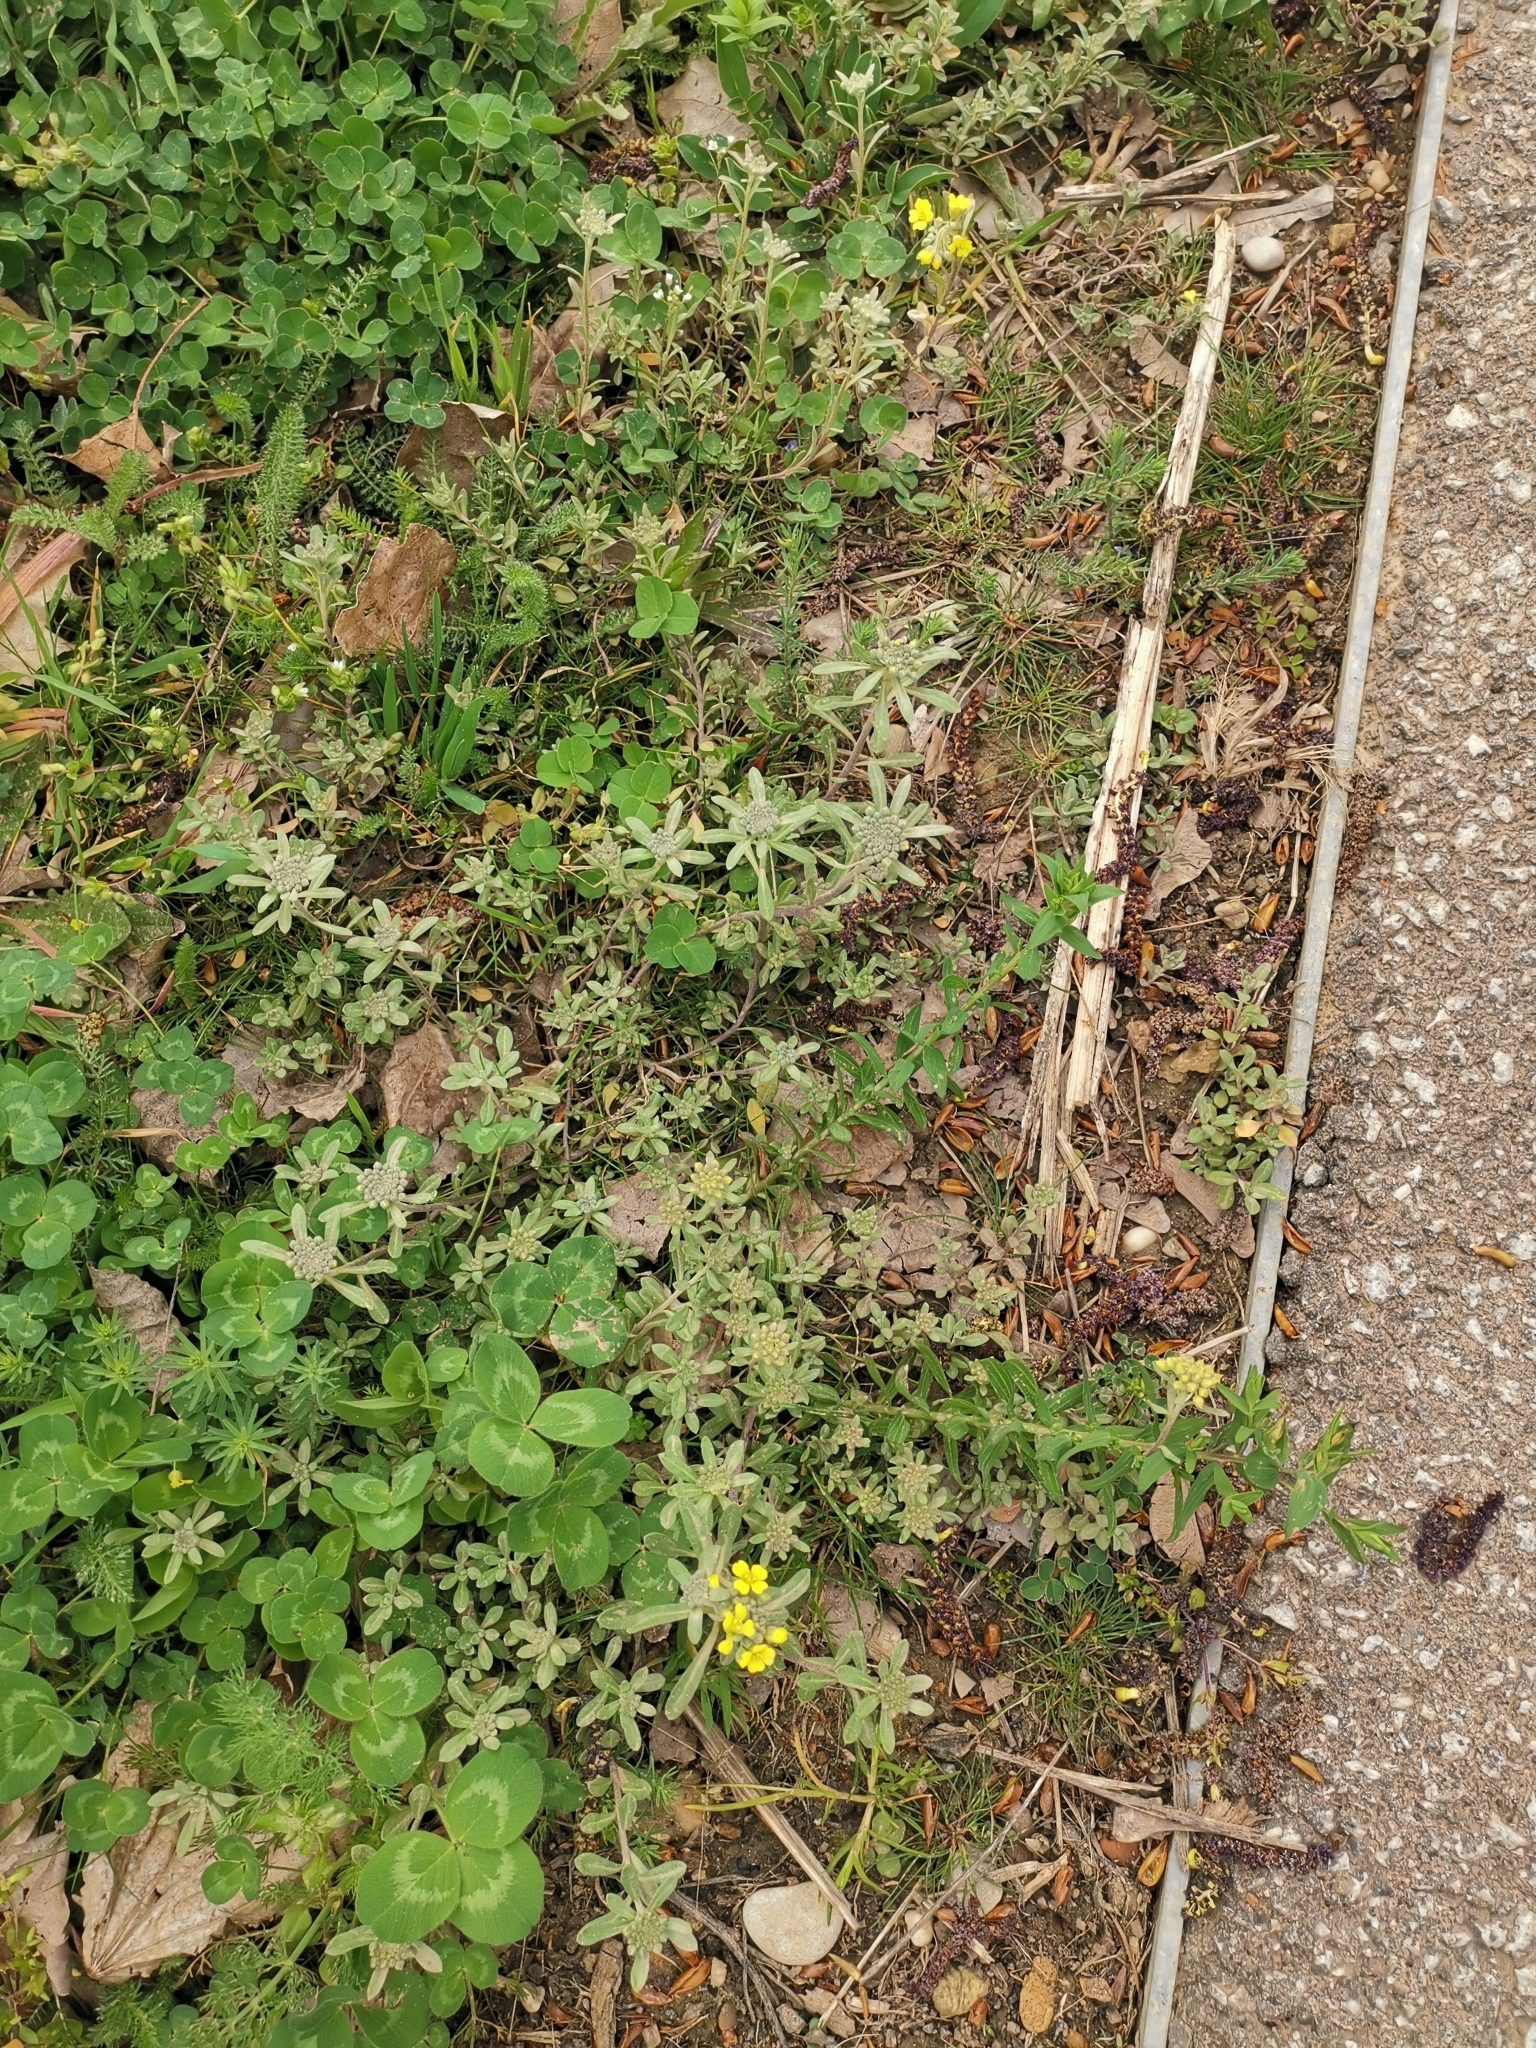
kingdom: Plantae
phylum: Tracheophyta
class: Magnoliopsida
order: Brassicales
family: Brassicaceae
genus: Alyssum
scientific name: Alyssum simplex
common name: Alyssum
